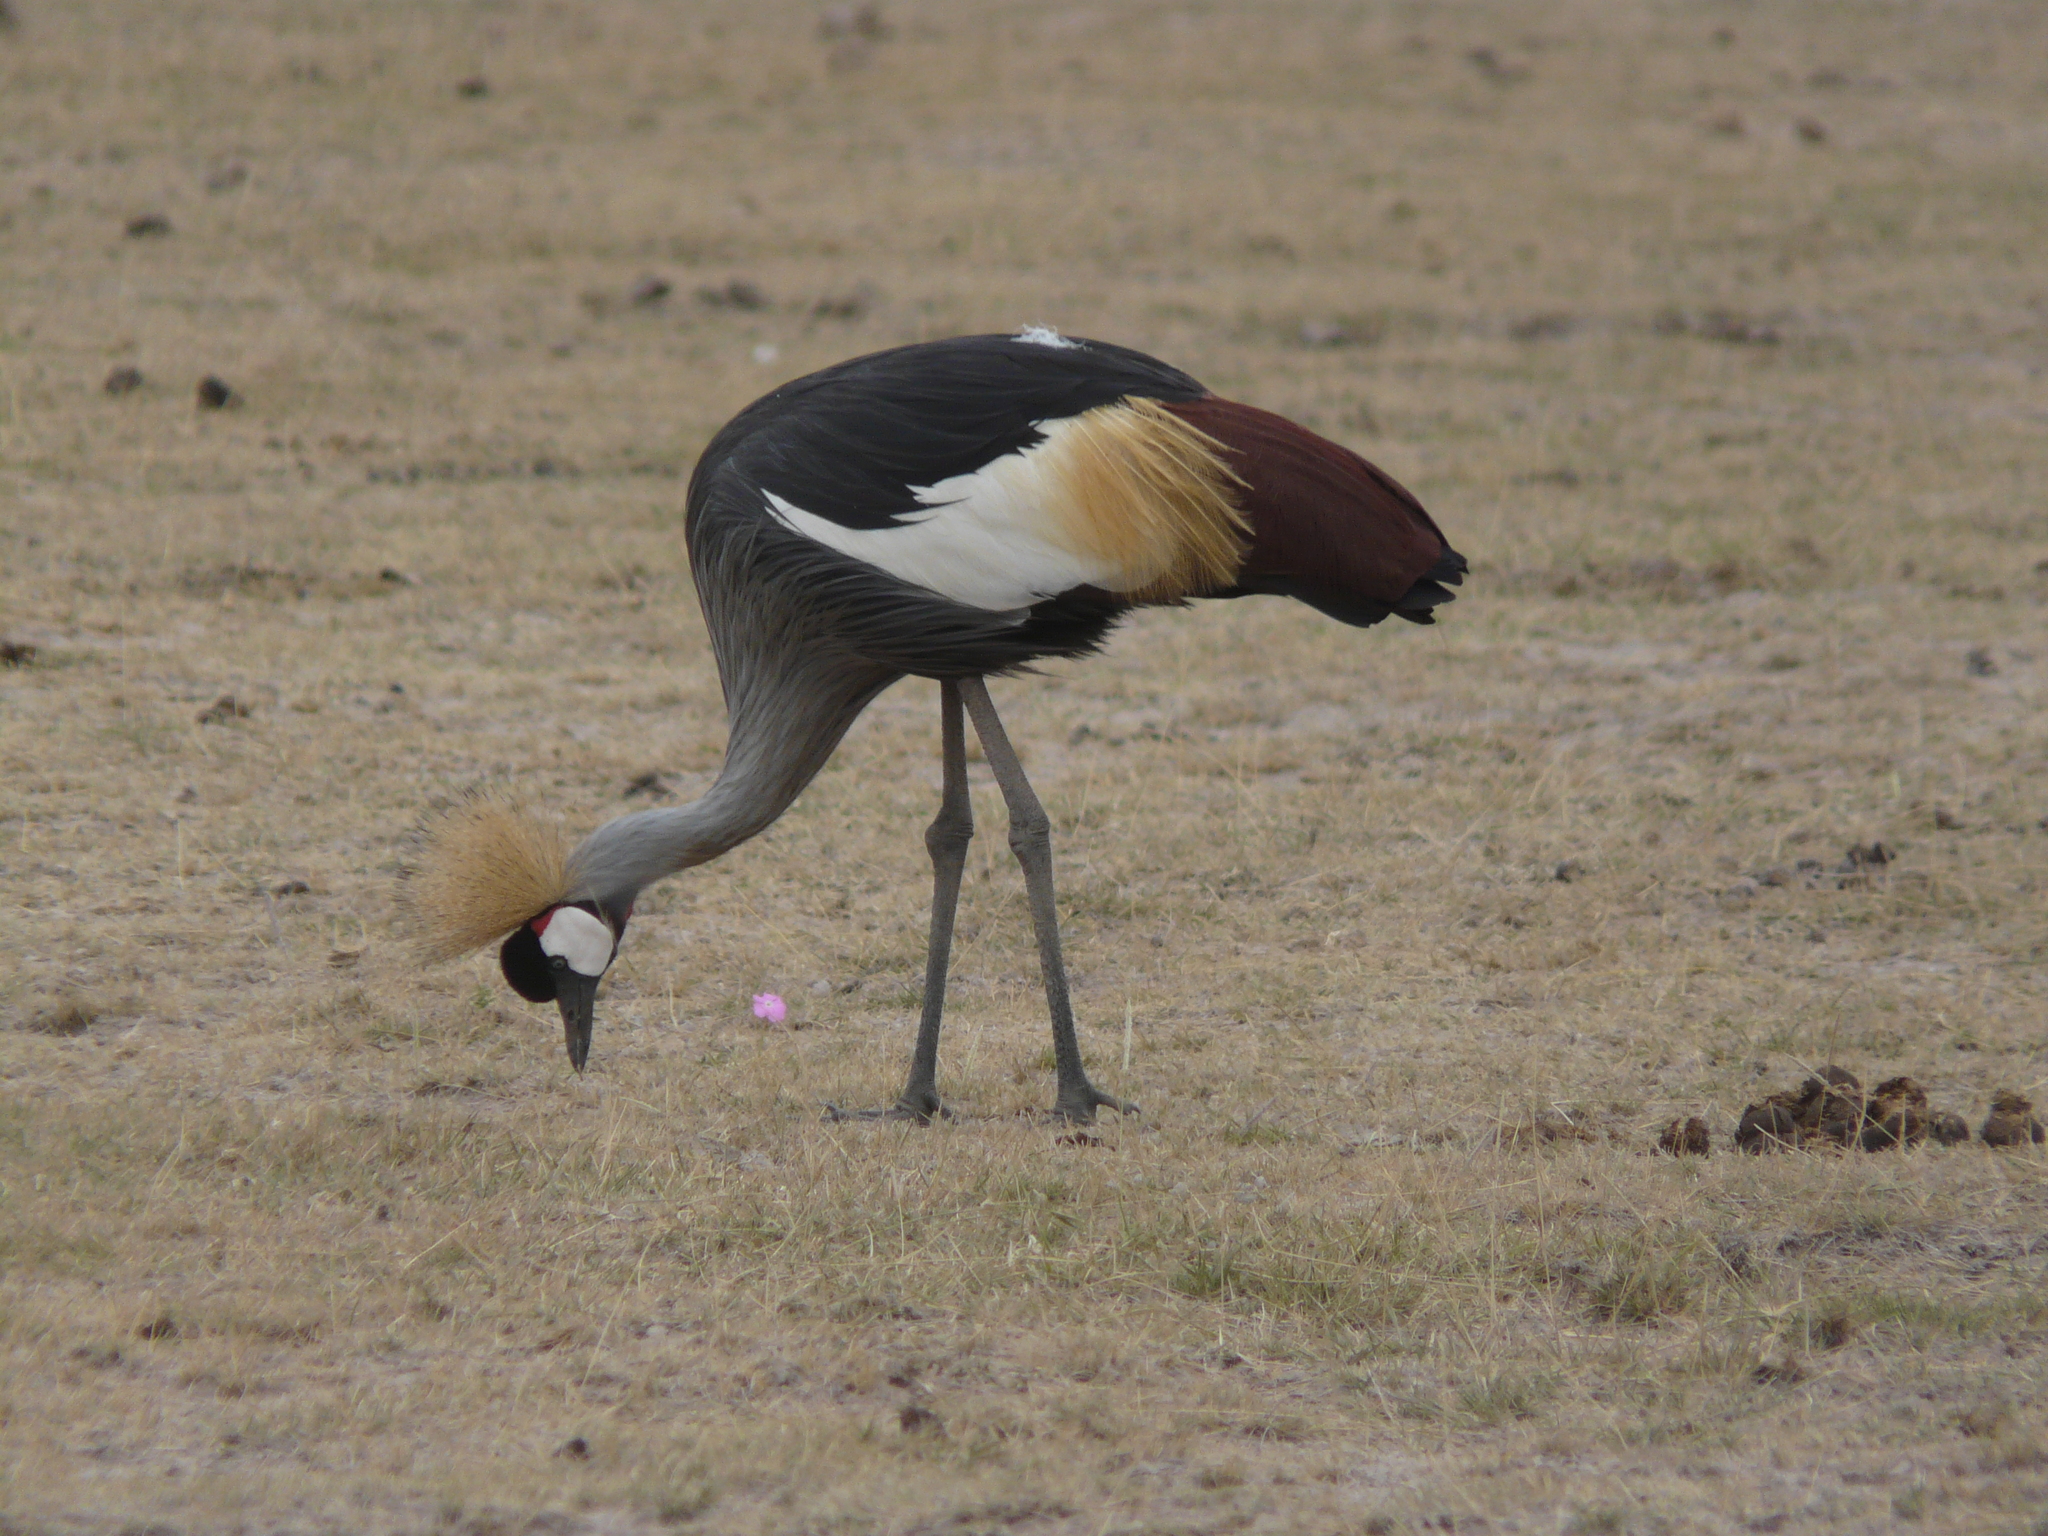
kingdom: Animalia
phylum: Chordata
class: Aves
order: Gruiformes
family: Gruidae
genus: Balearica
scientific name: Balearica regulorum
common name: Grey crowned crane
